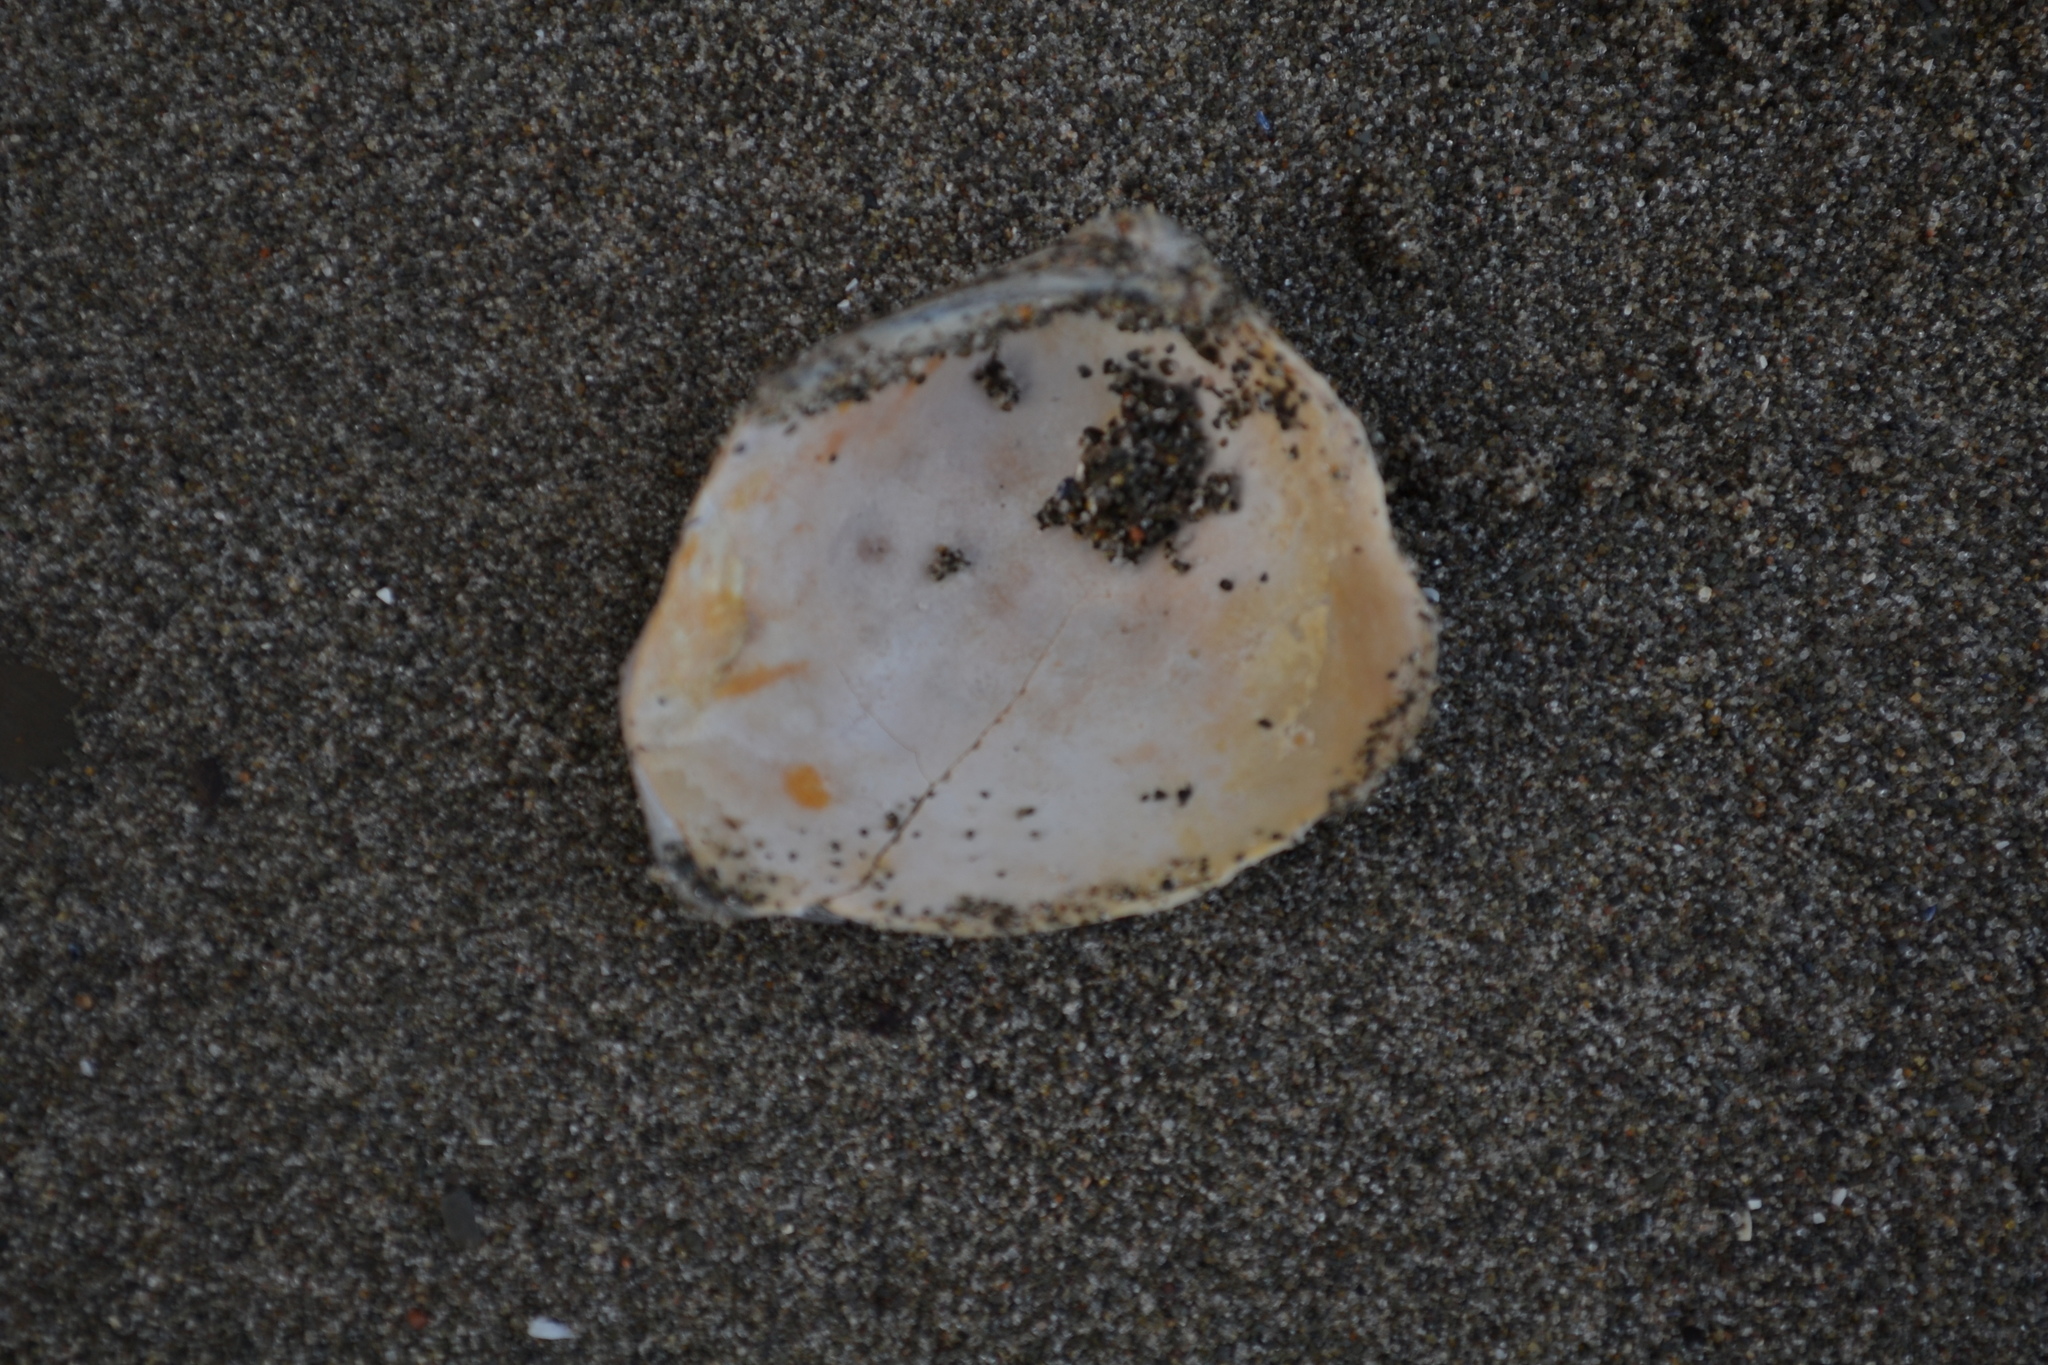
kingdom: Animalia
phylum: Mollusca
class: Bivalvia
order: Cardiida
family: Cardiidae
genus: Serripes
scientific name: Serripes groenlandicus
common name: Greenland cockle
